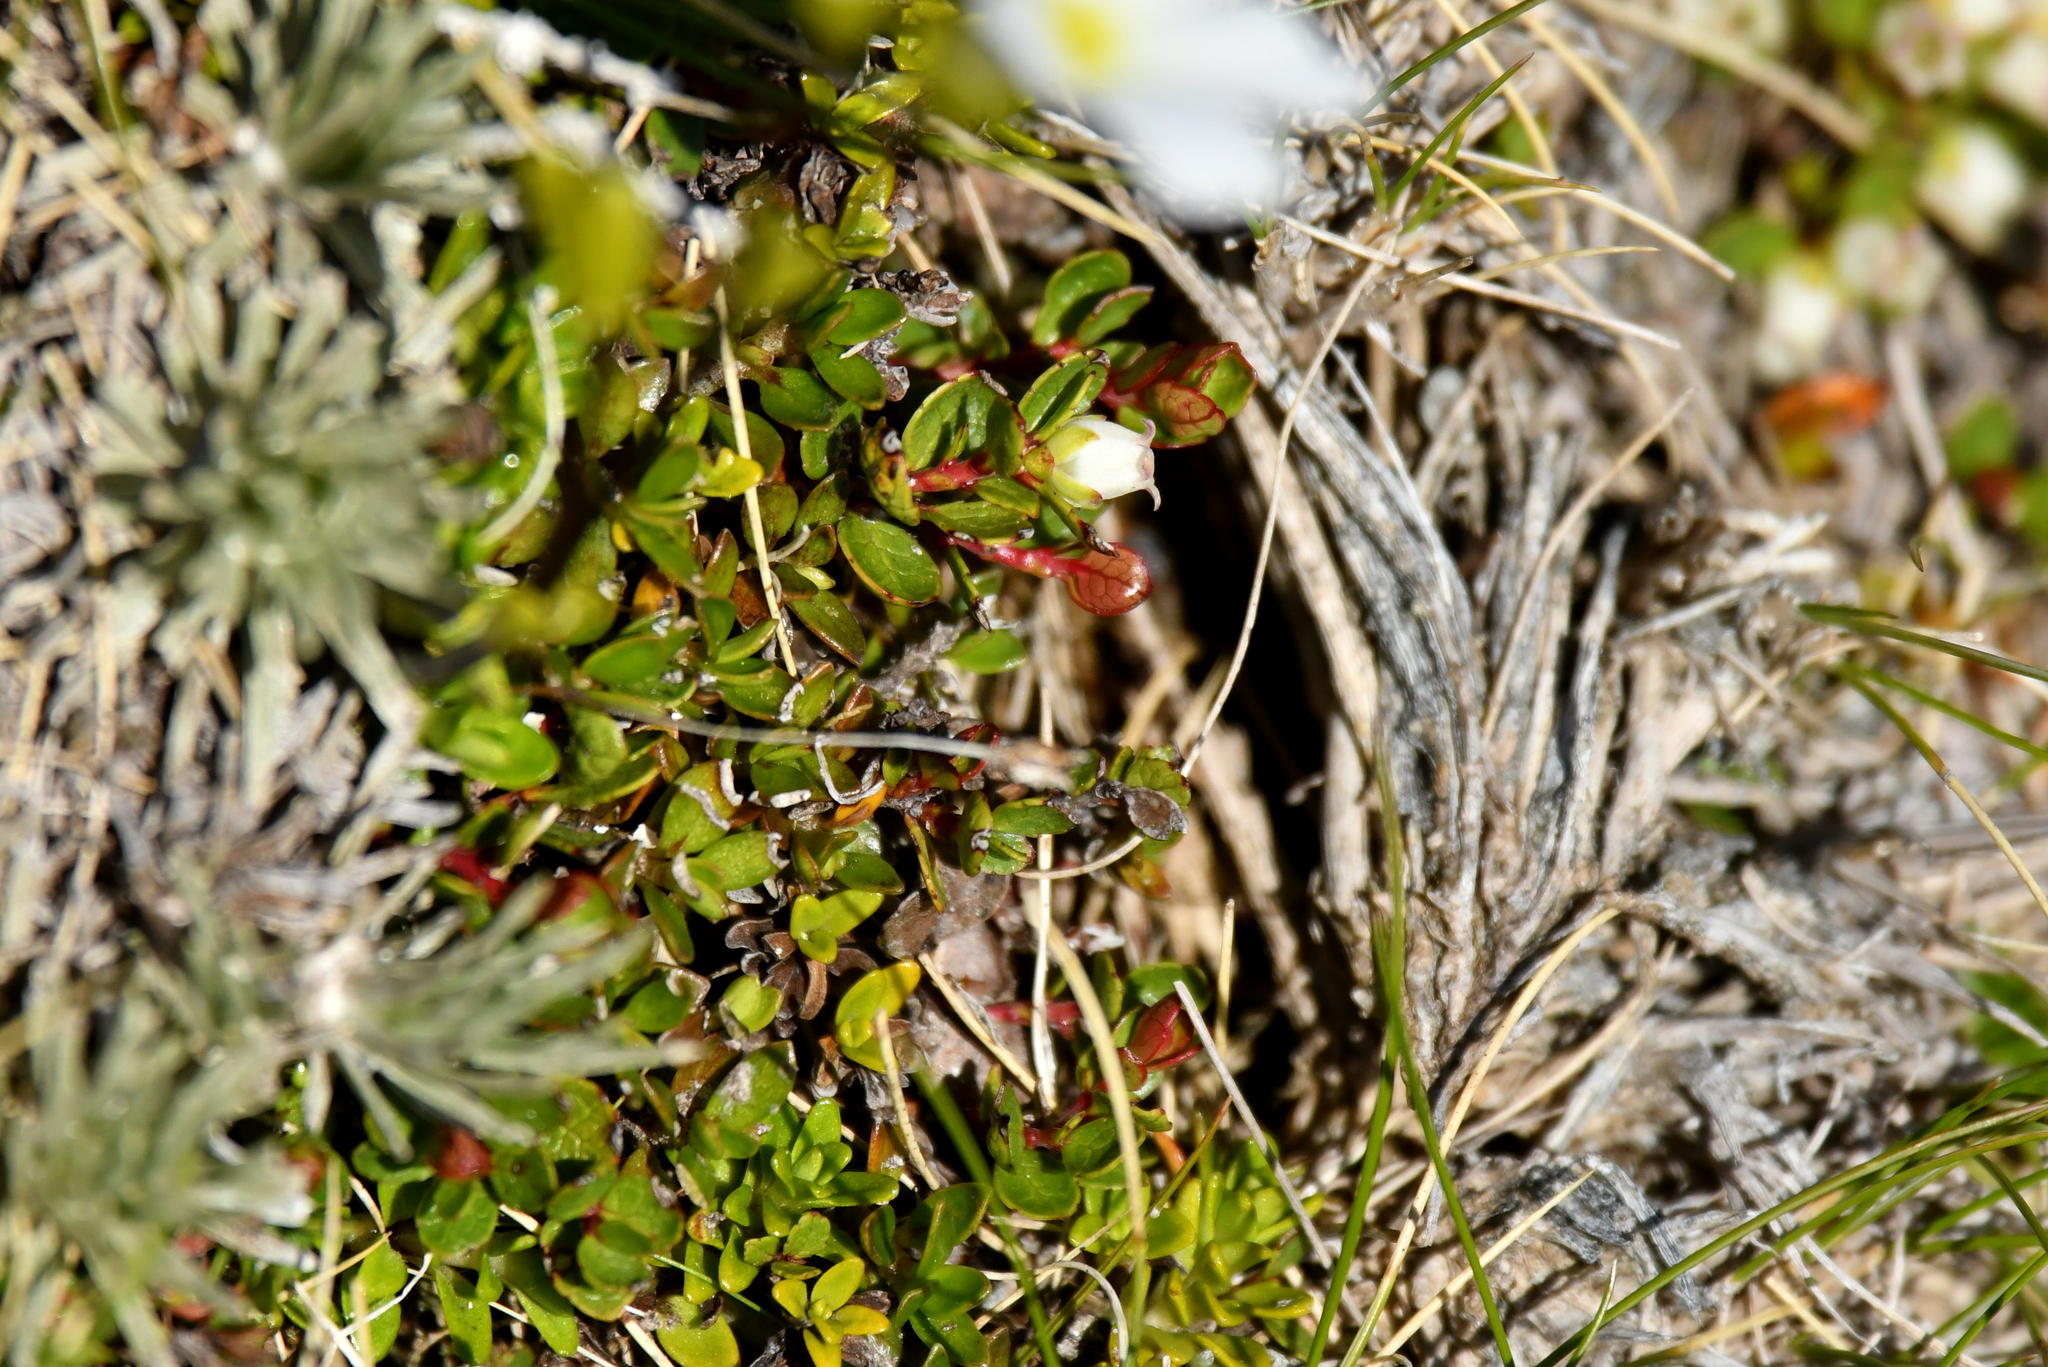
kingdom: Plantae
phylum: Tracheophyta
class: Magnoliopsida
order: Ericales
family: Ericaceae
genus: Gaultheria
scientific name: Gaultheria nubicola
